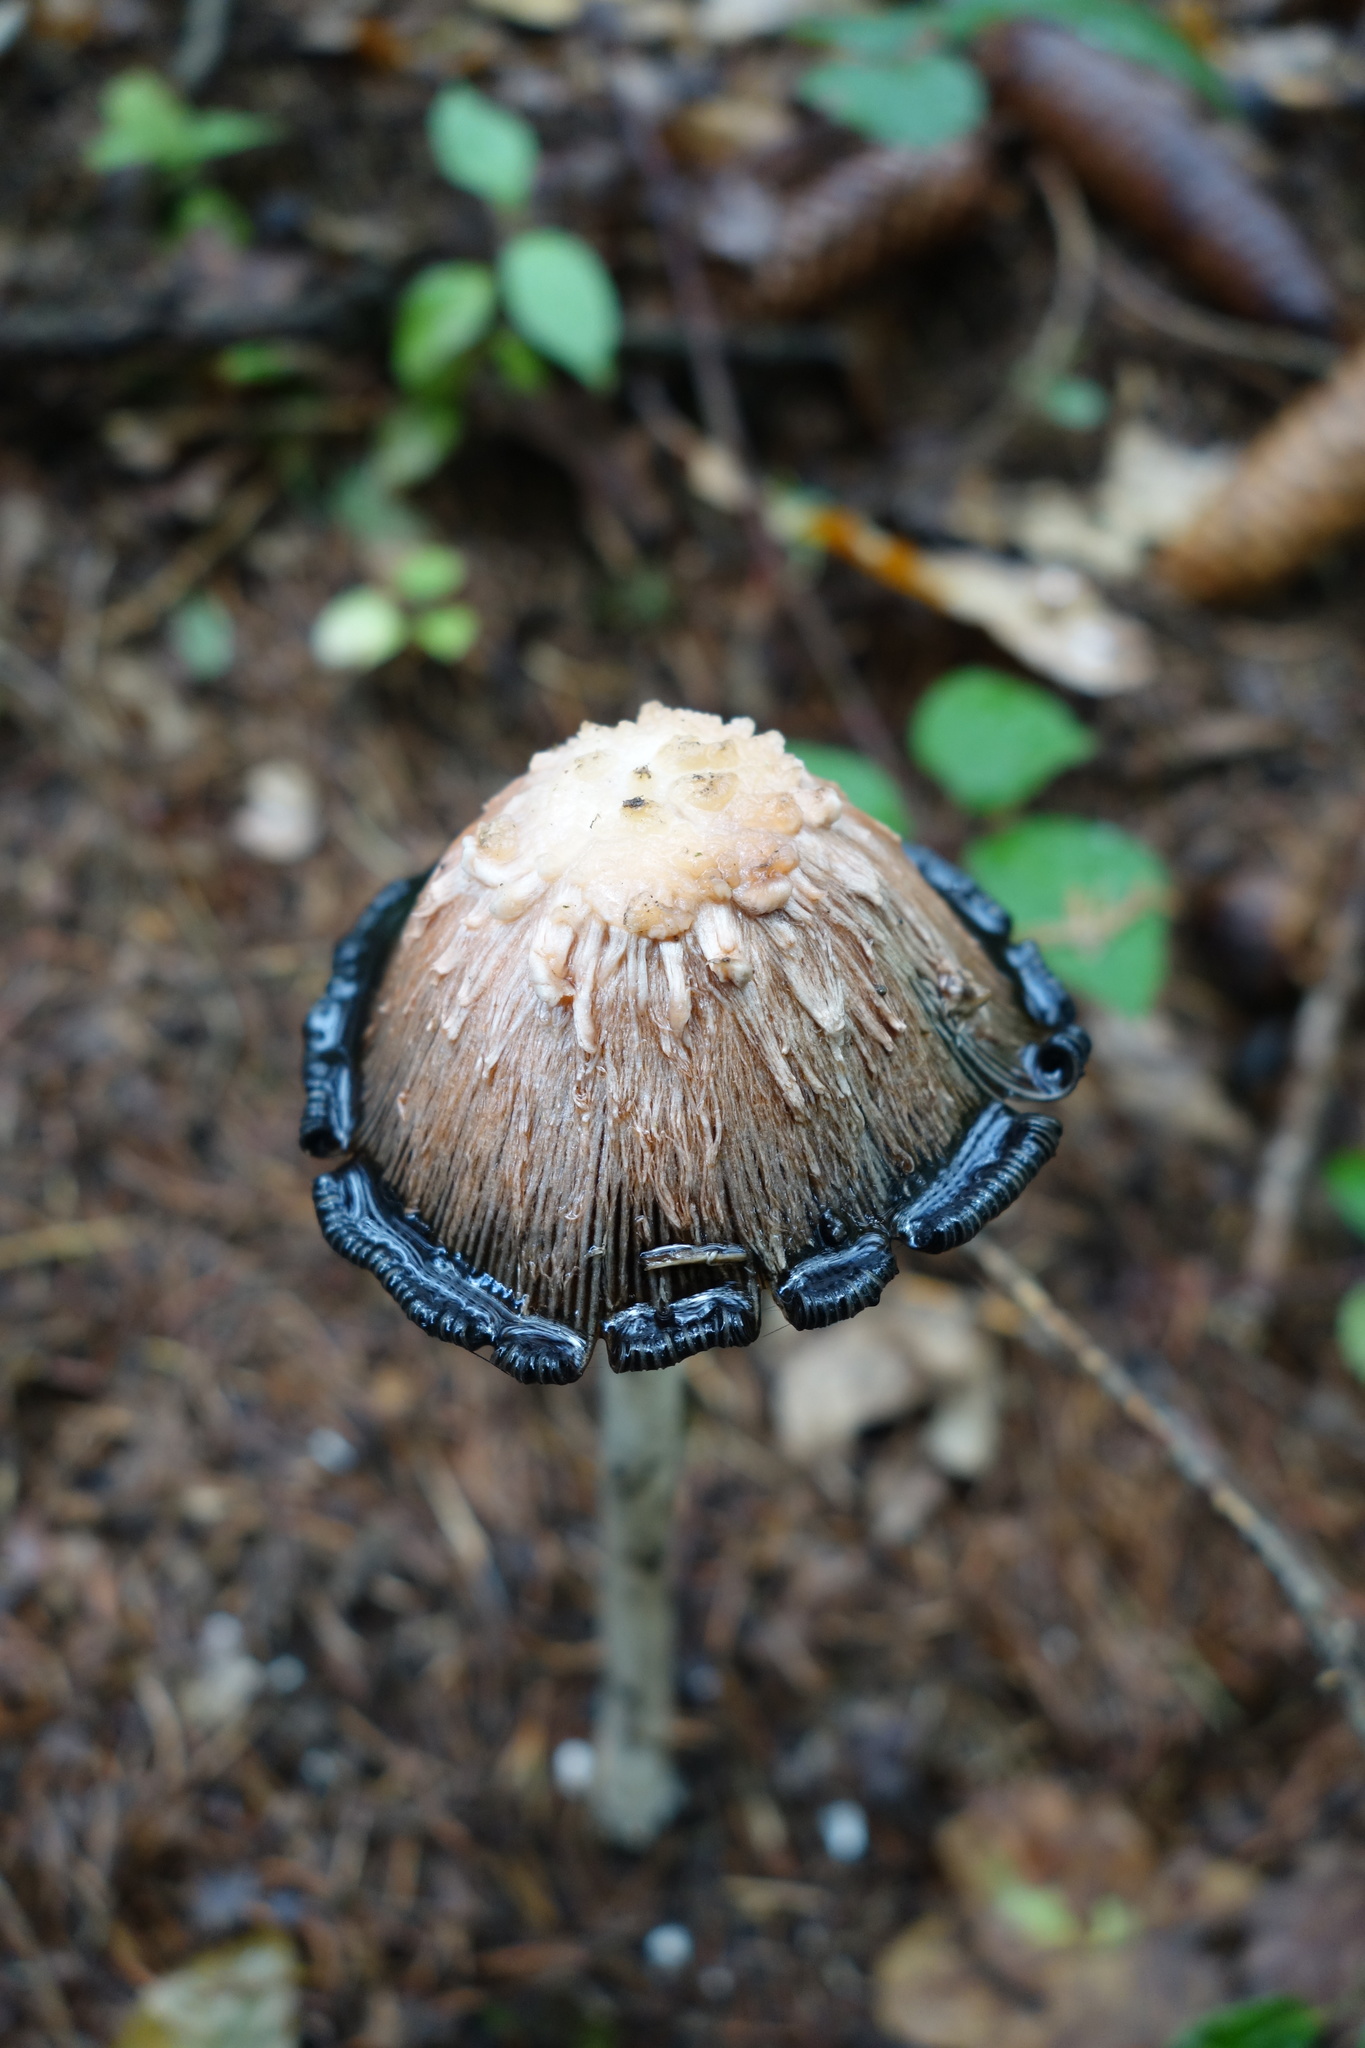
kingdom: Fungi
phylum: Basidiomycota
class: Agaricomycetes
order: Agaricales
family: Agaricaceae
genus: Coprinus
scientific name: Coprinus comatus
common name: Lawyer's wig
